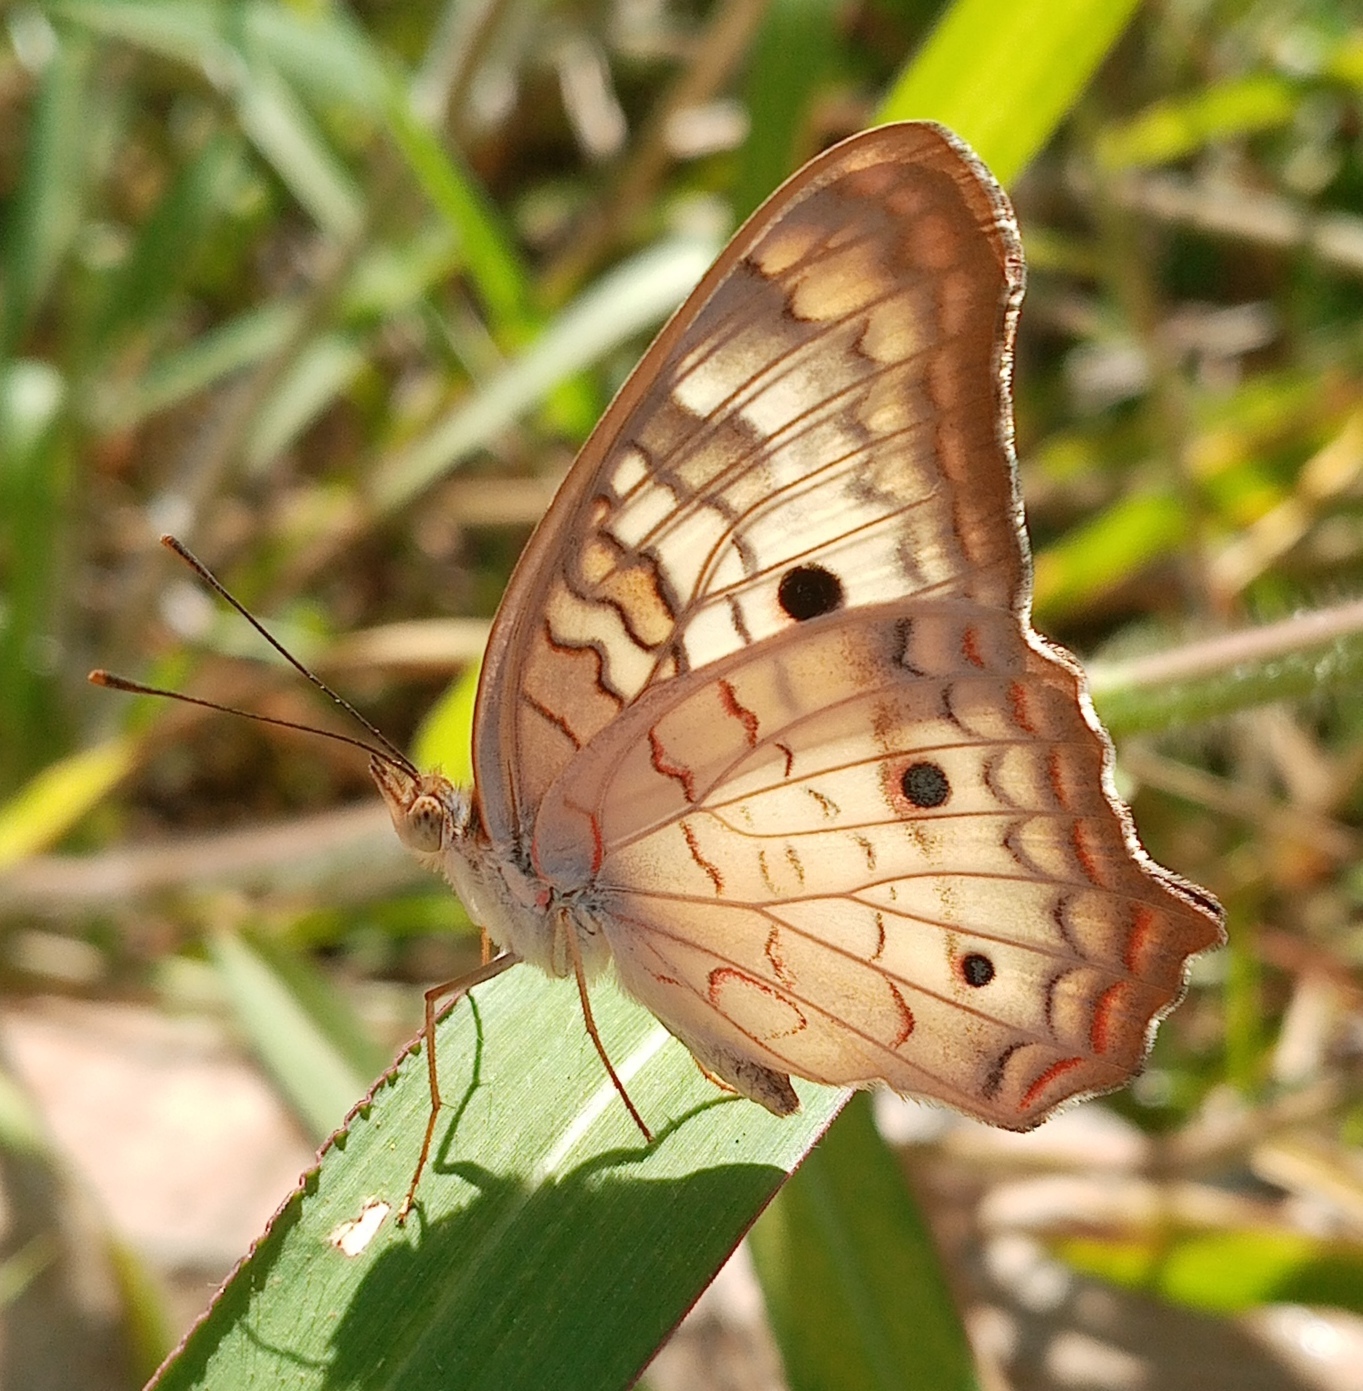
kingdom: Animalia
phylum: Arthropoda
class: Insecta
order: Lepidoptera
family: Nymphalidae
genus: Anartia
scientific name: Anartia jatrophae
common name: White peacock
